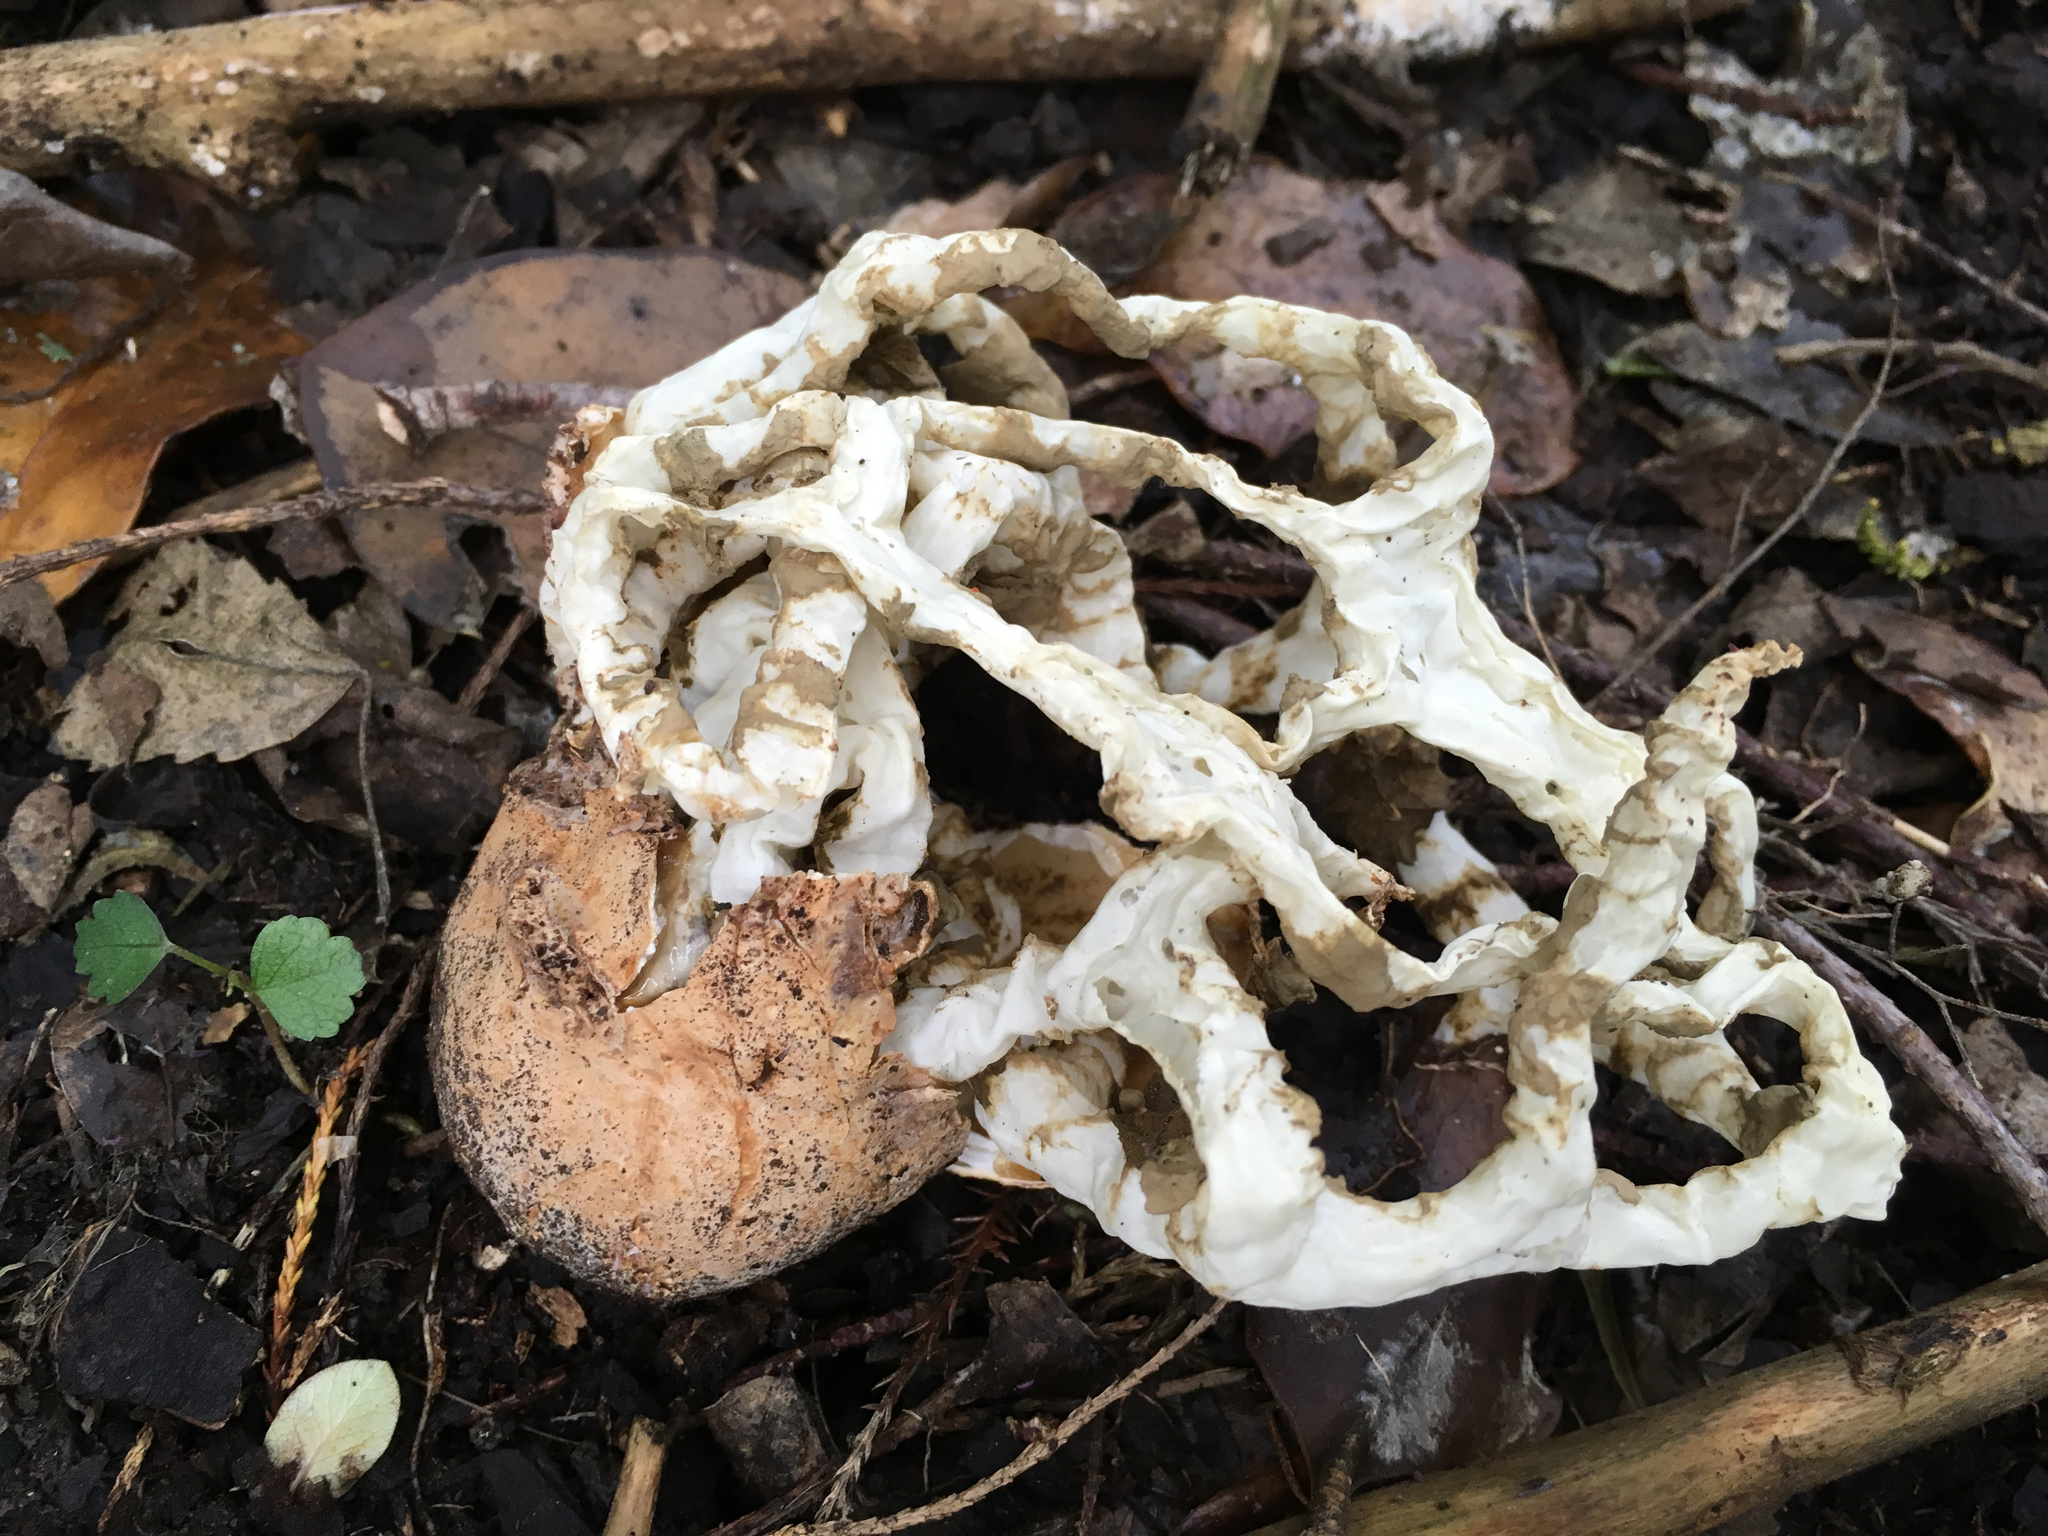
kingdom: Fungi
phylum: Basidiomycota
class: Agaricomycetes
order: Phallales
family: Phallaceae
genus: Ileodictyon
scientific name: Ileodictyon cibarium
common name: Basket fungus
